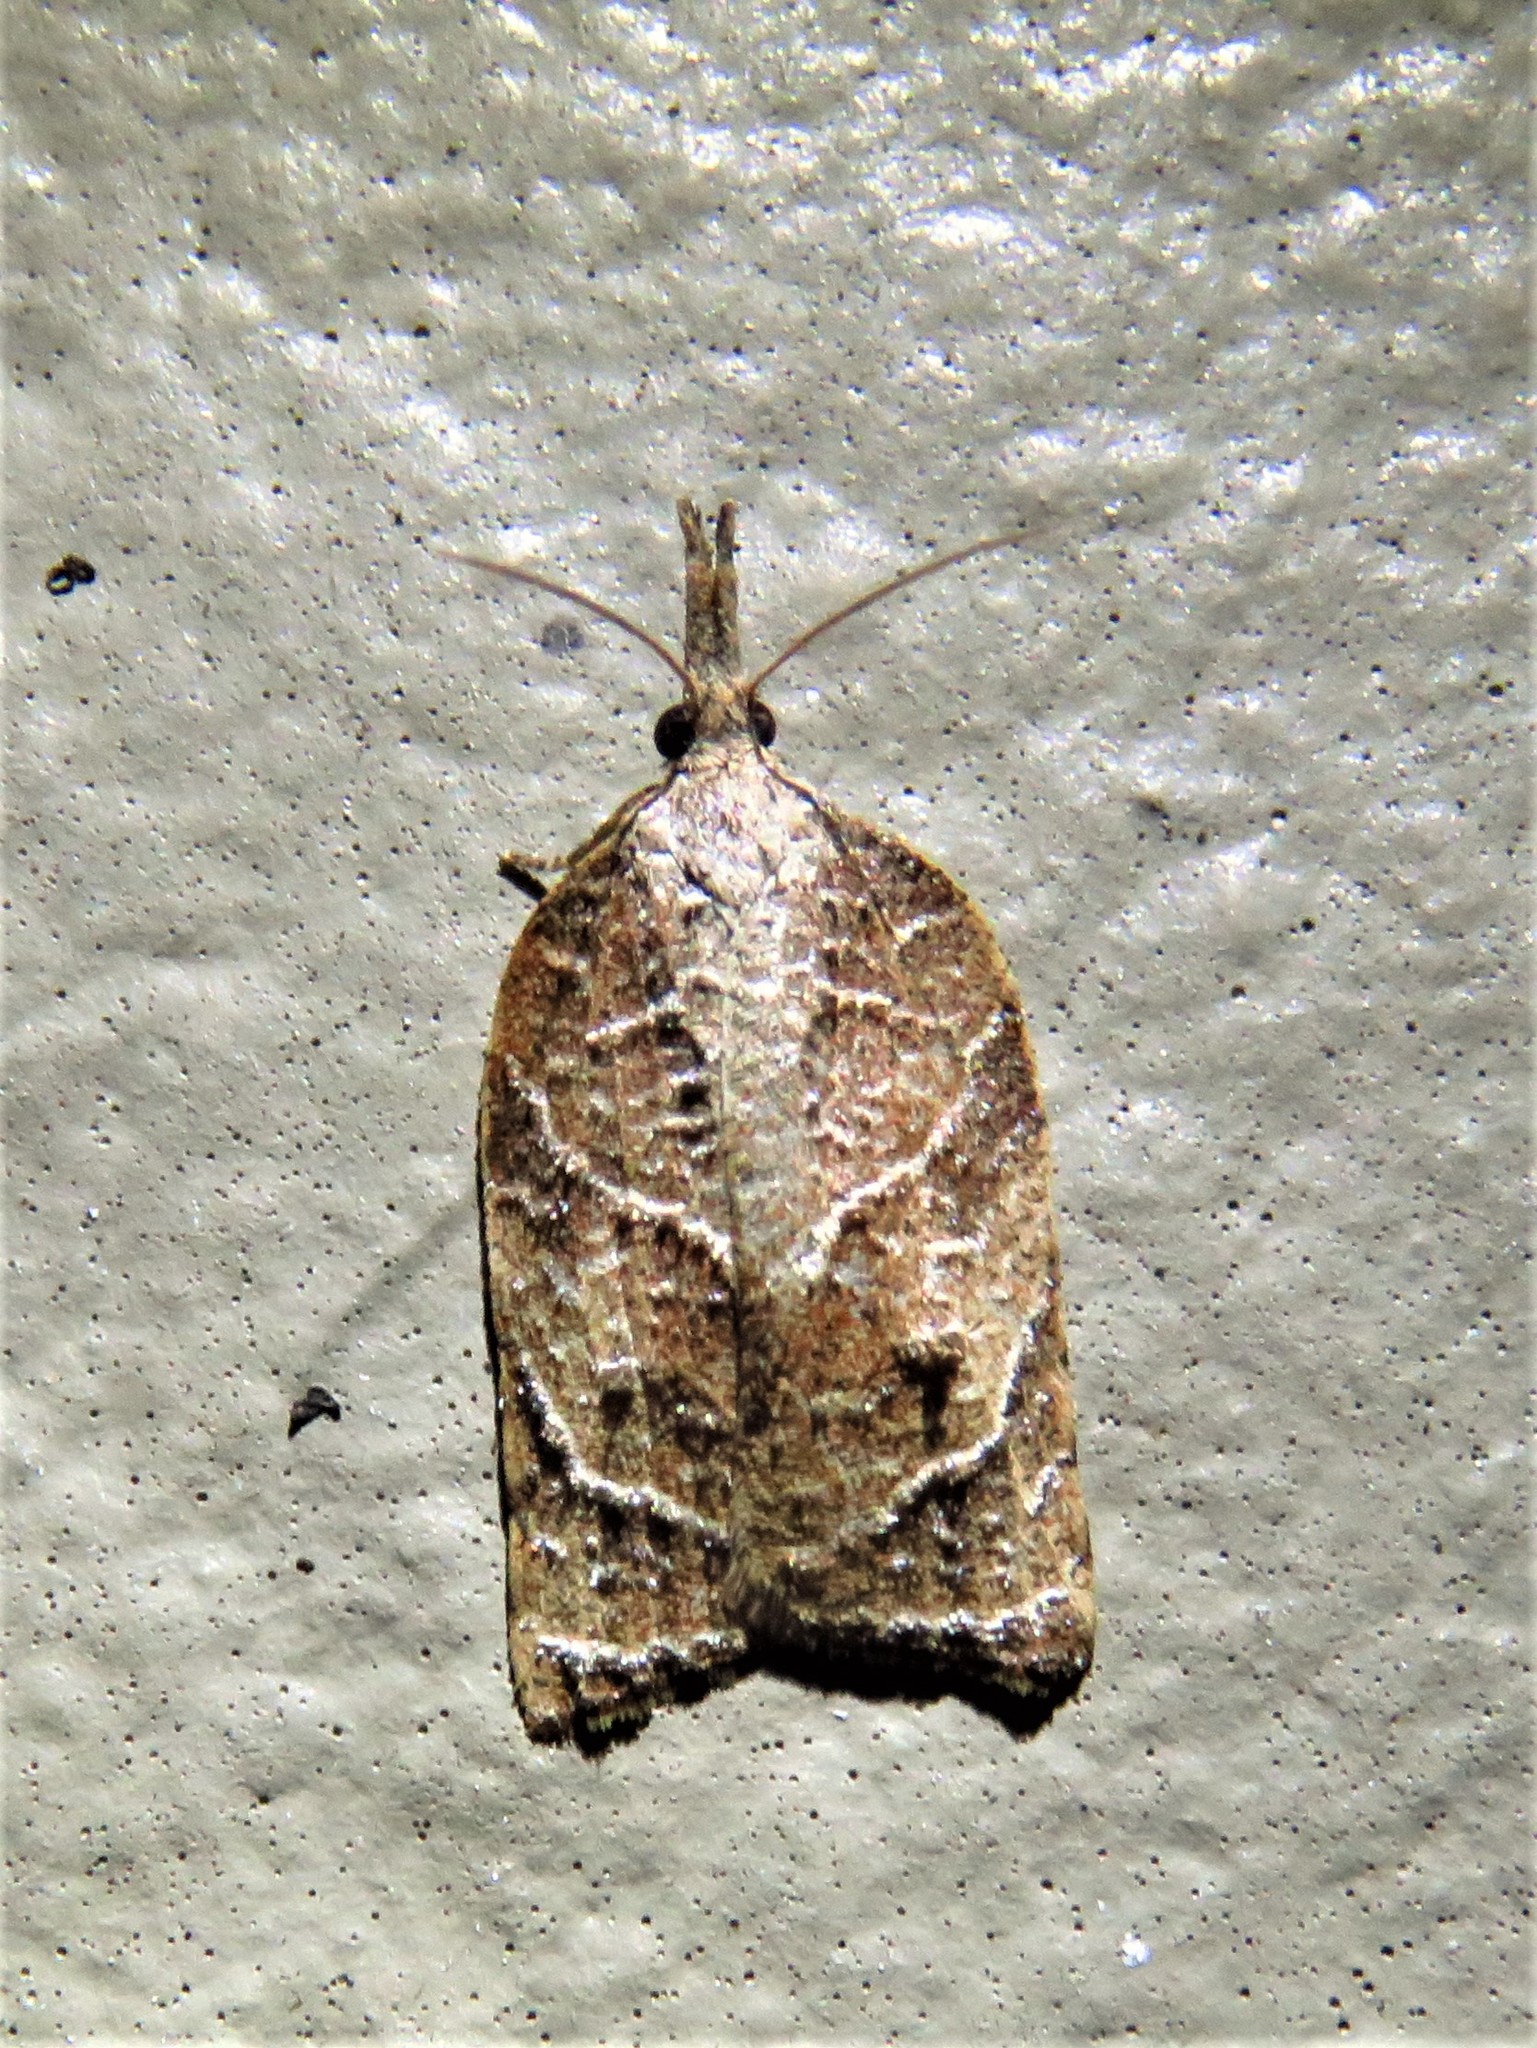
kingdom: Animalia
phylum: Arthropoda
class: Insecta
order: Lepidoptera
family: Tortricidae
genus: Platynota
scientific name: Platynota rostrana
